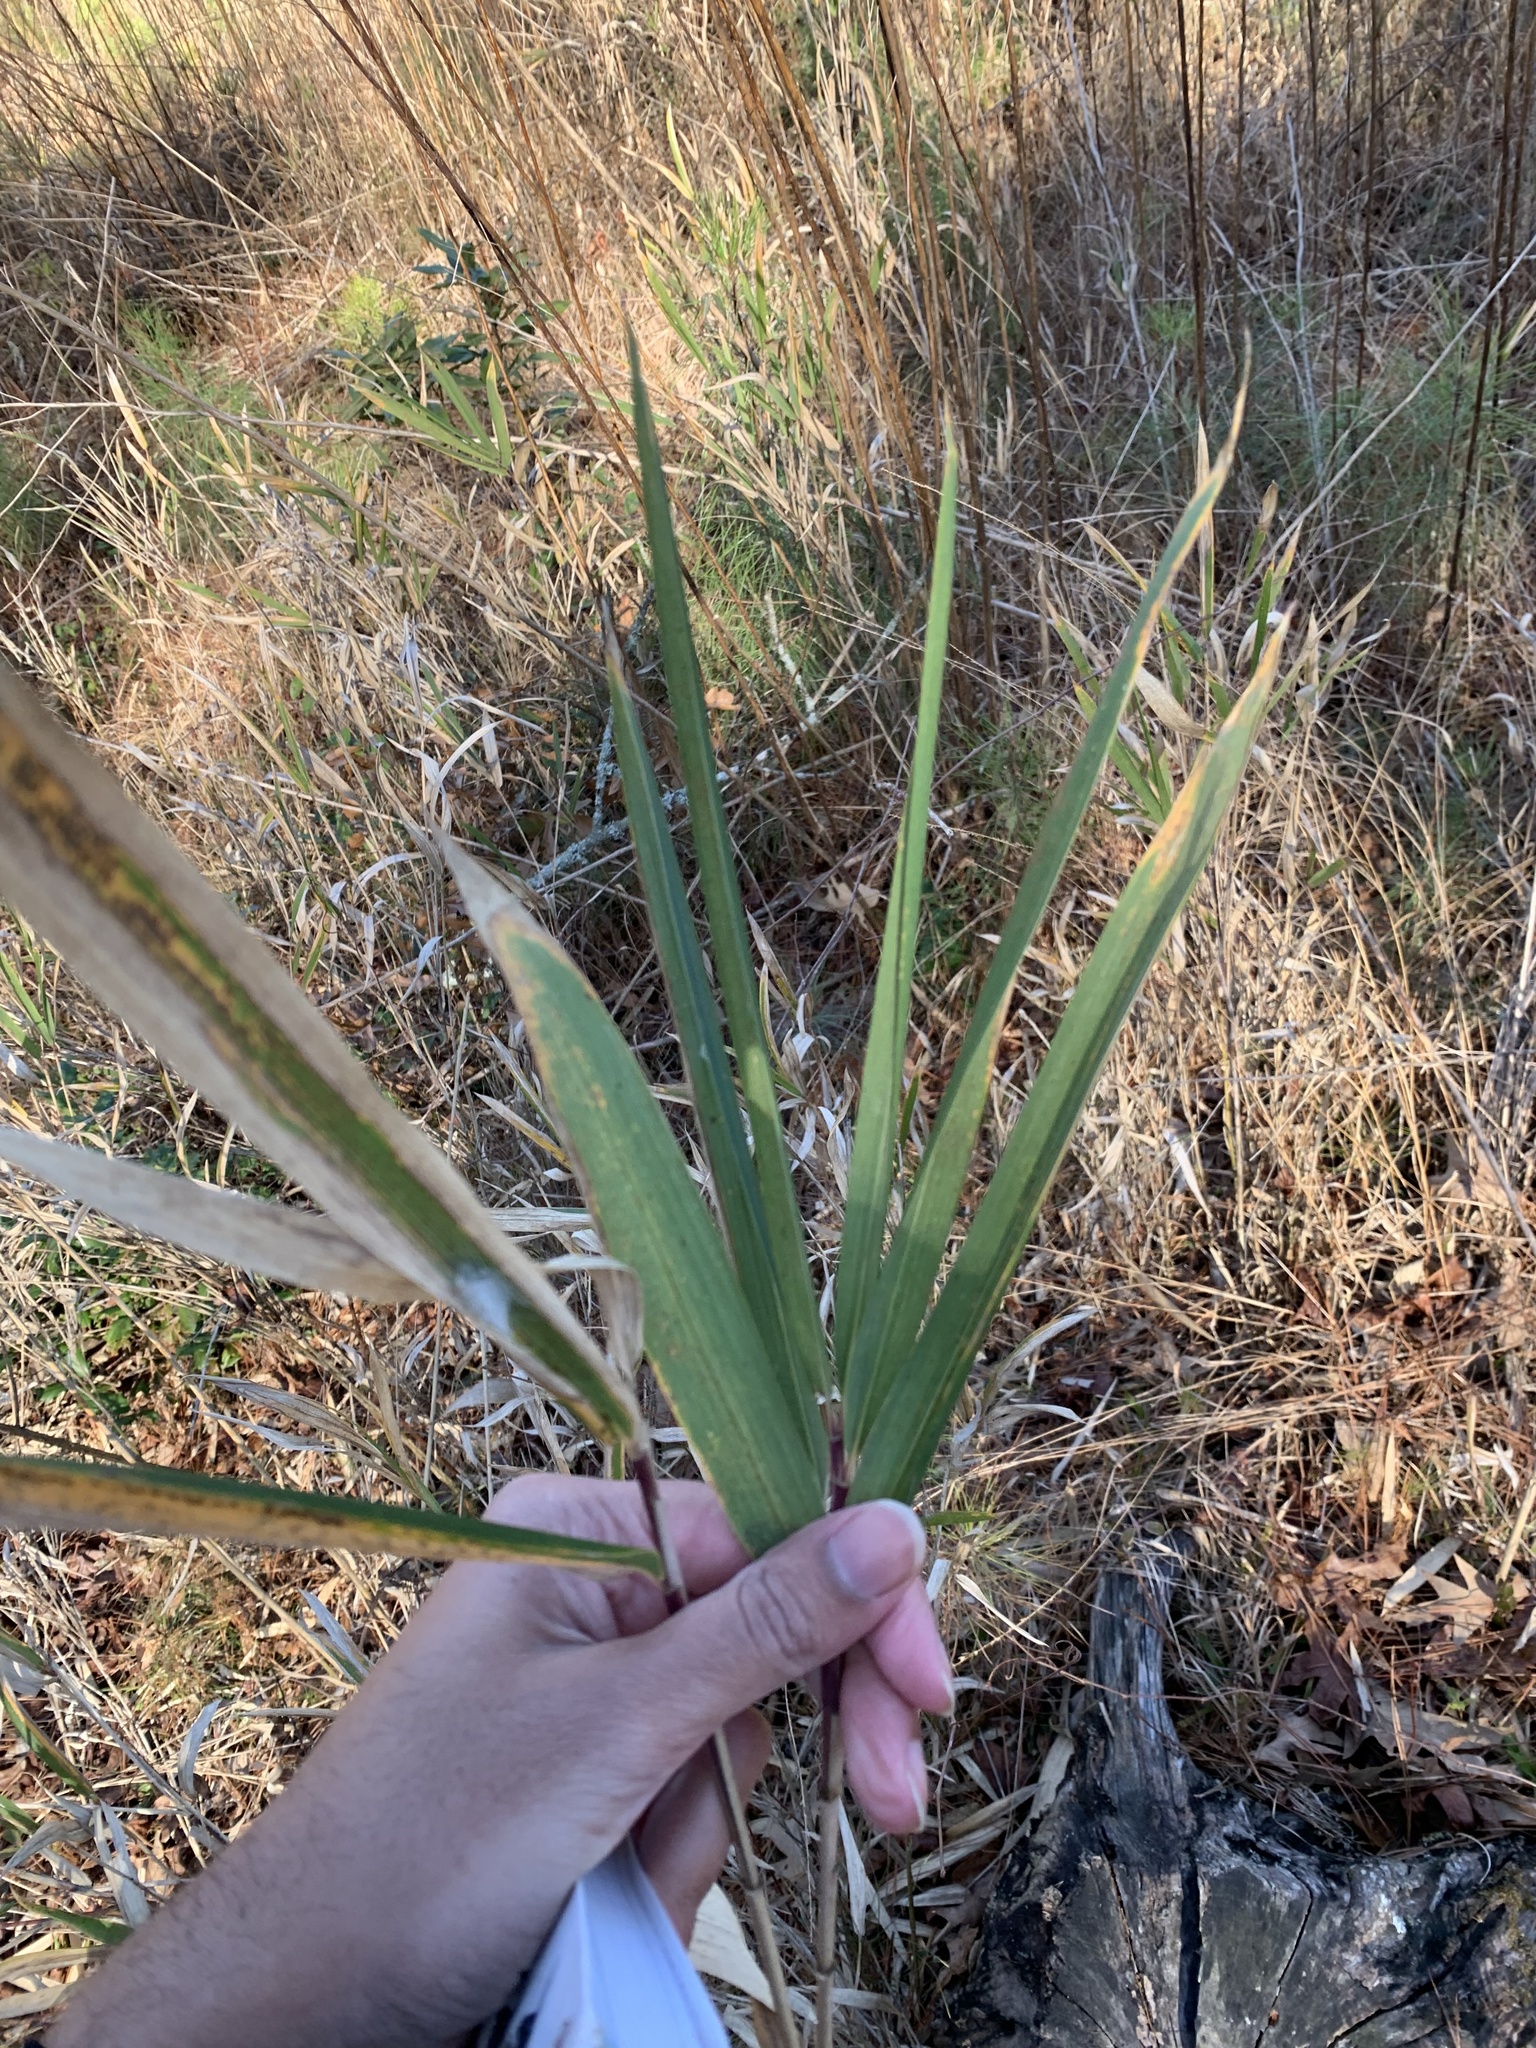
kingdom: Plantae
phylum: Tracheophyta
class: Liliopsida
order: Poales
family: Poaceae
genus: Arundinaria
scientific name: Arundinaria tecta
